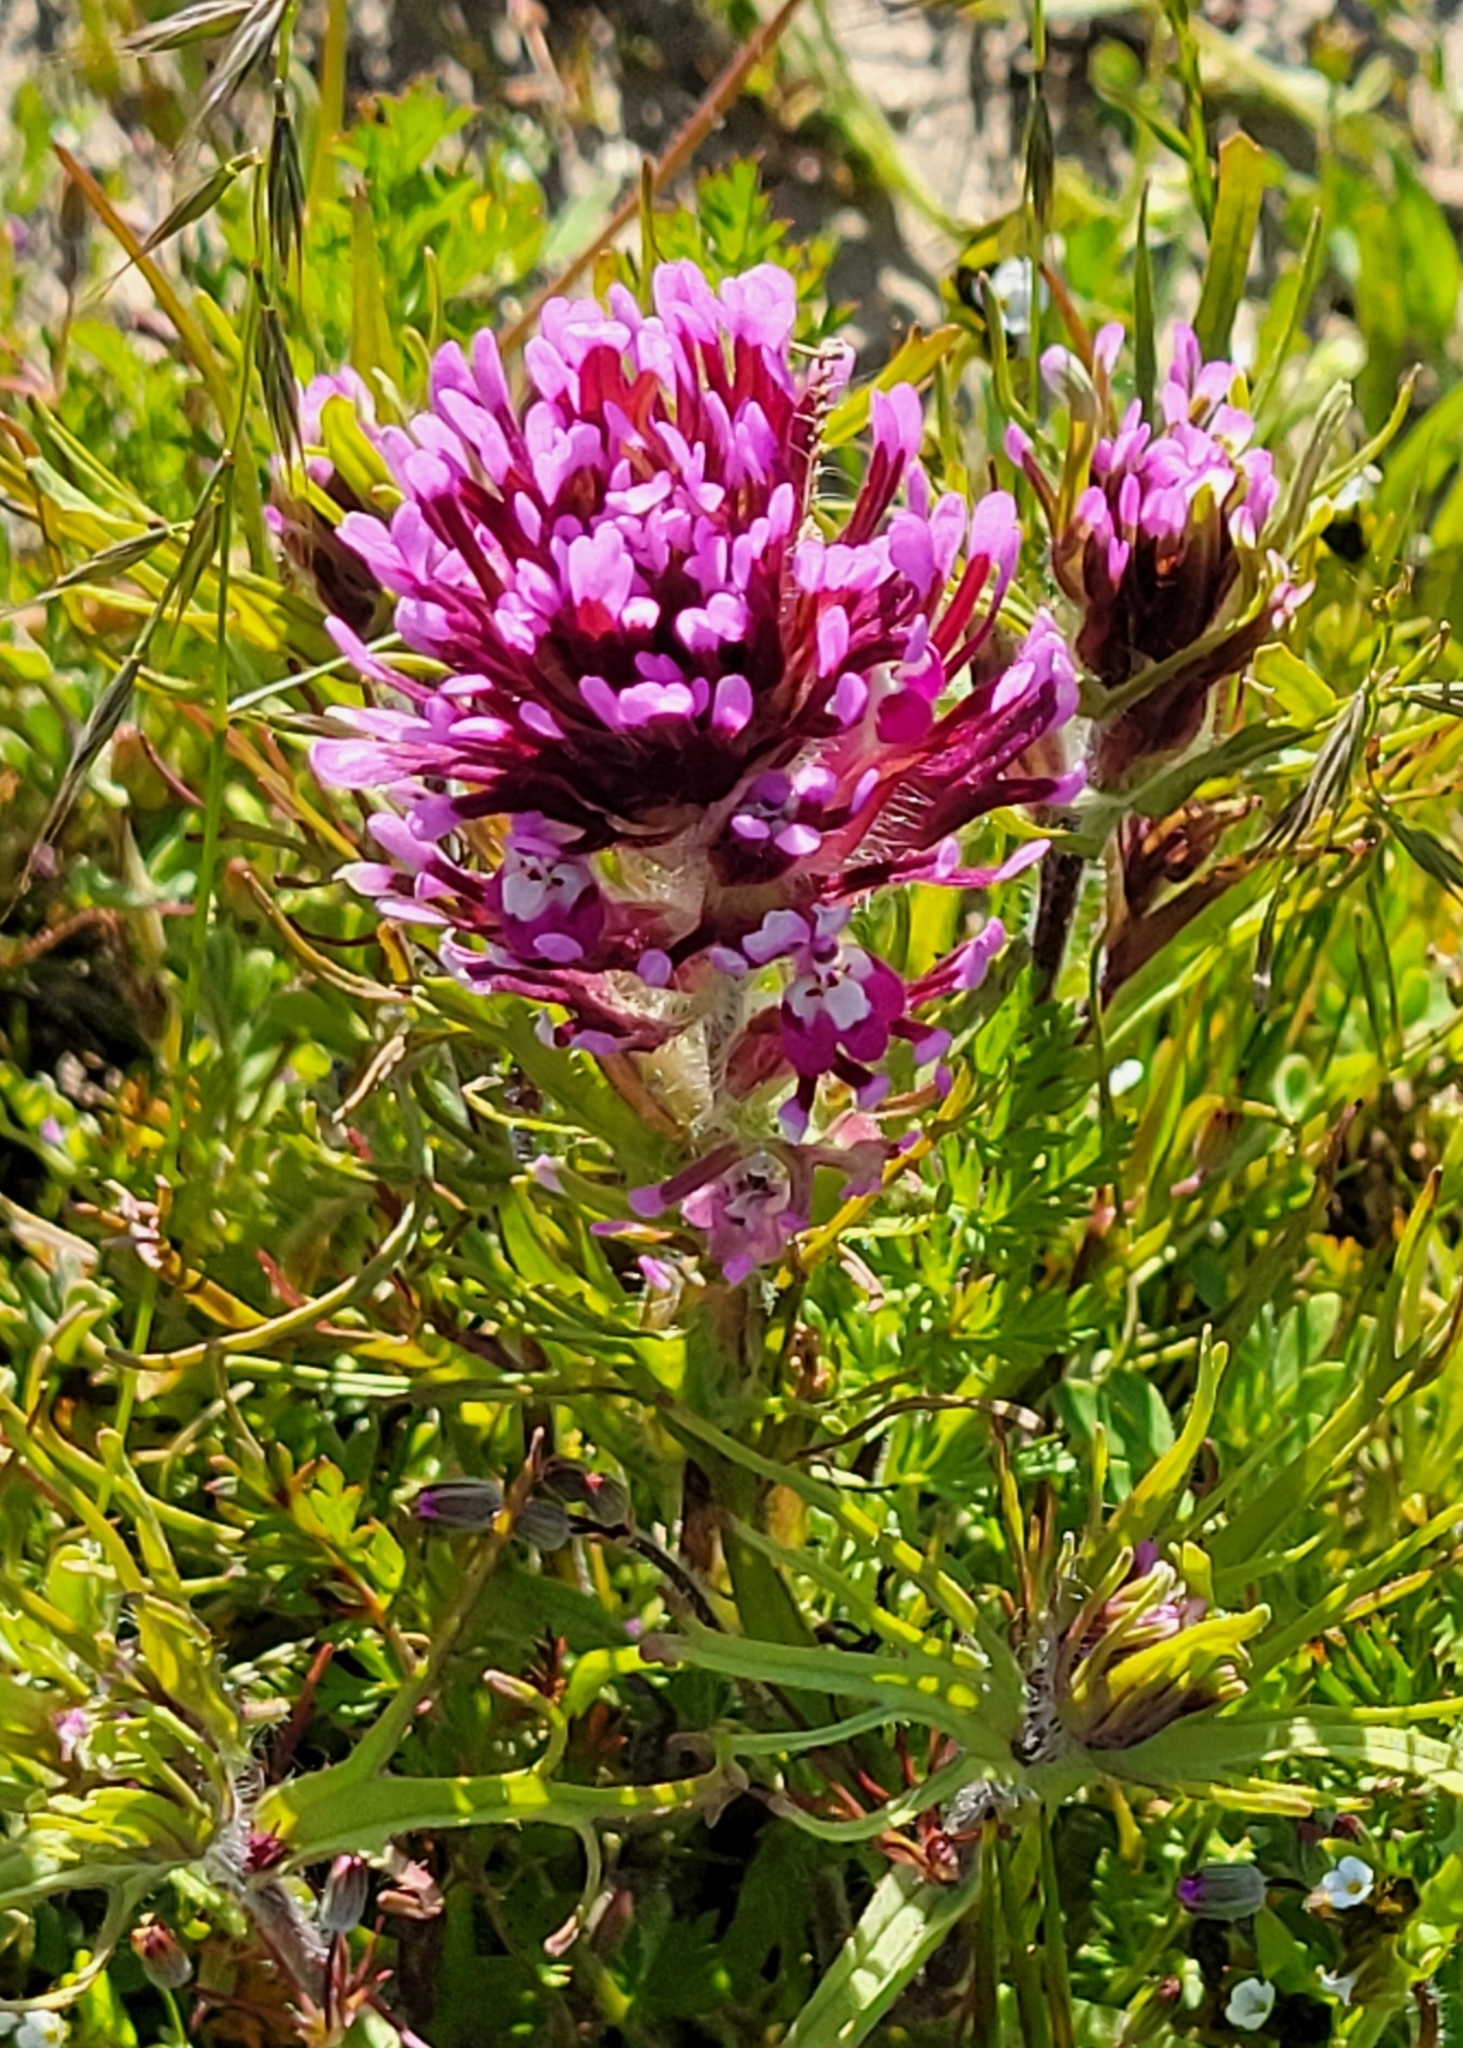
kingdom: Plantae
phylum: Tracheophyta
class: Magnoliopsida
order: Lamiales
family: Orobanchaceae
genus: Castilleja
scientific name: Castilleja exserta
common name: Purple owl-clover
